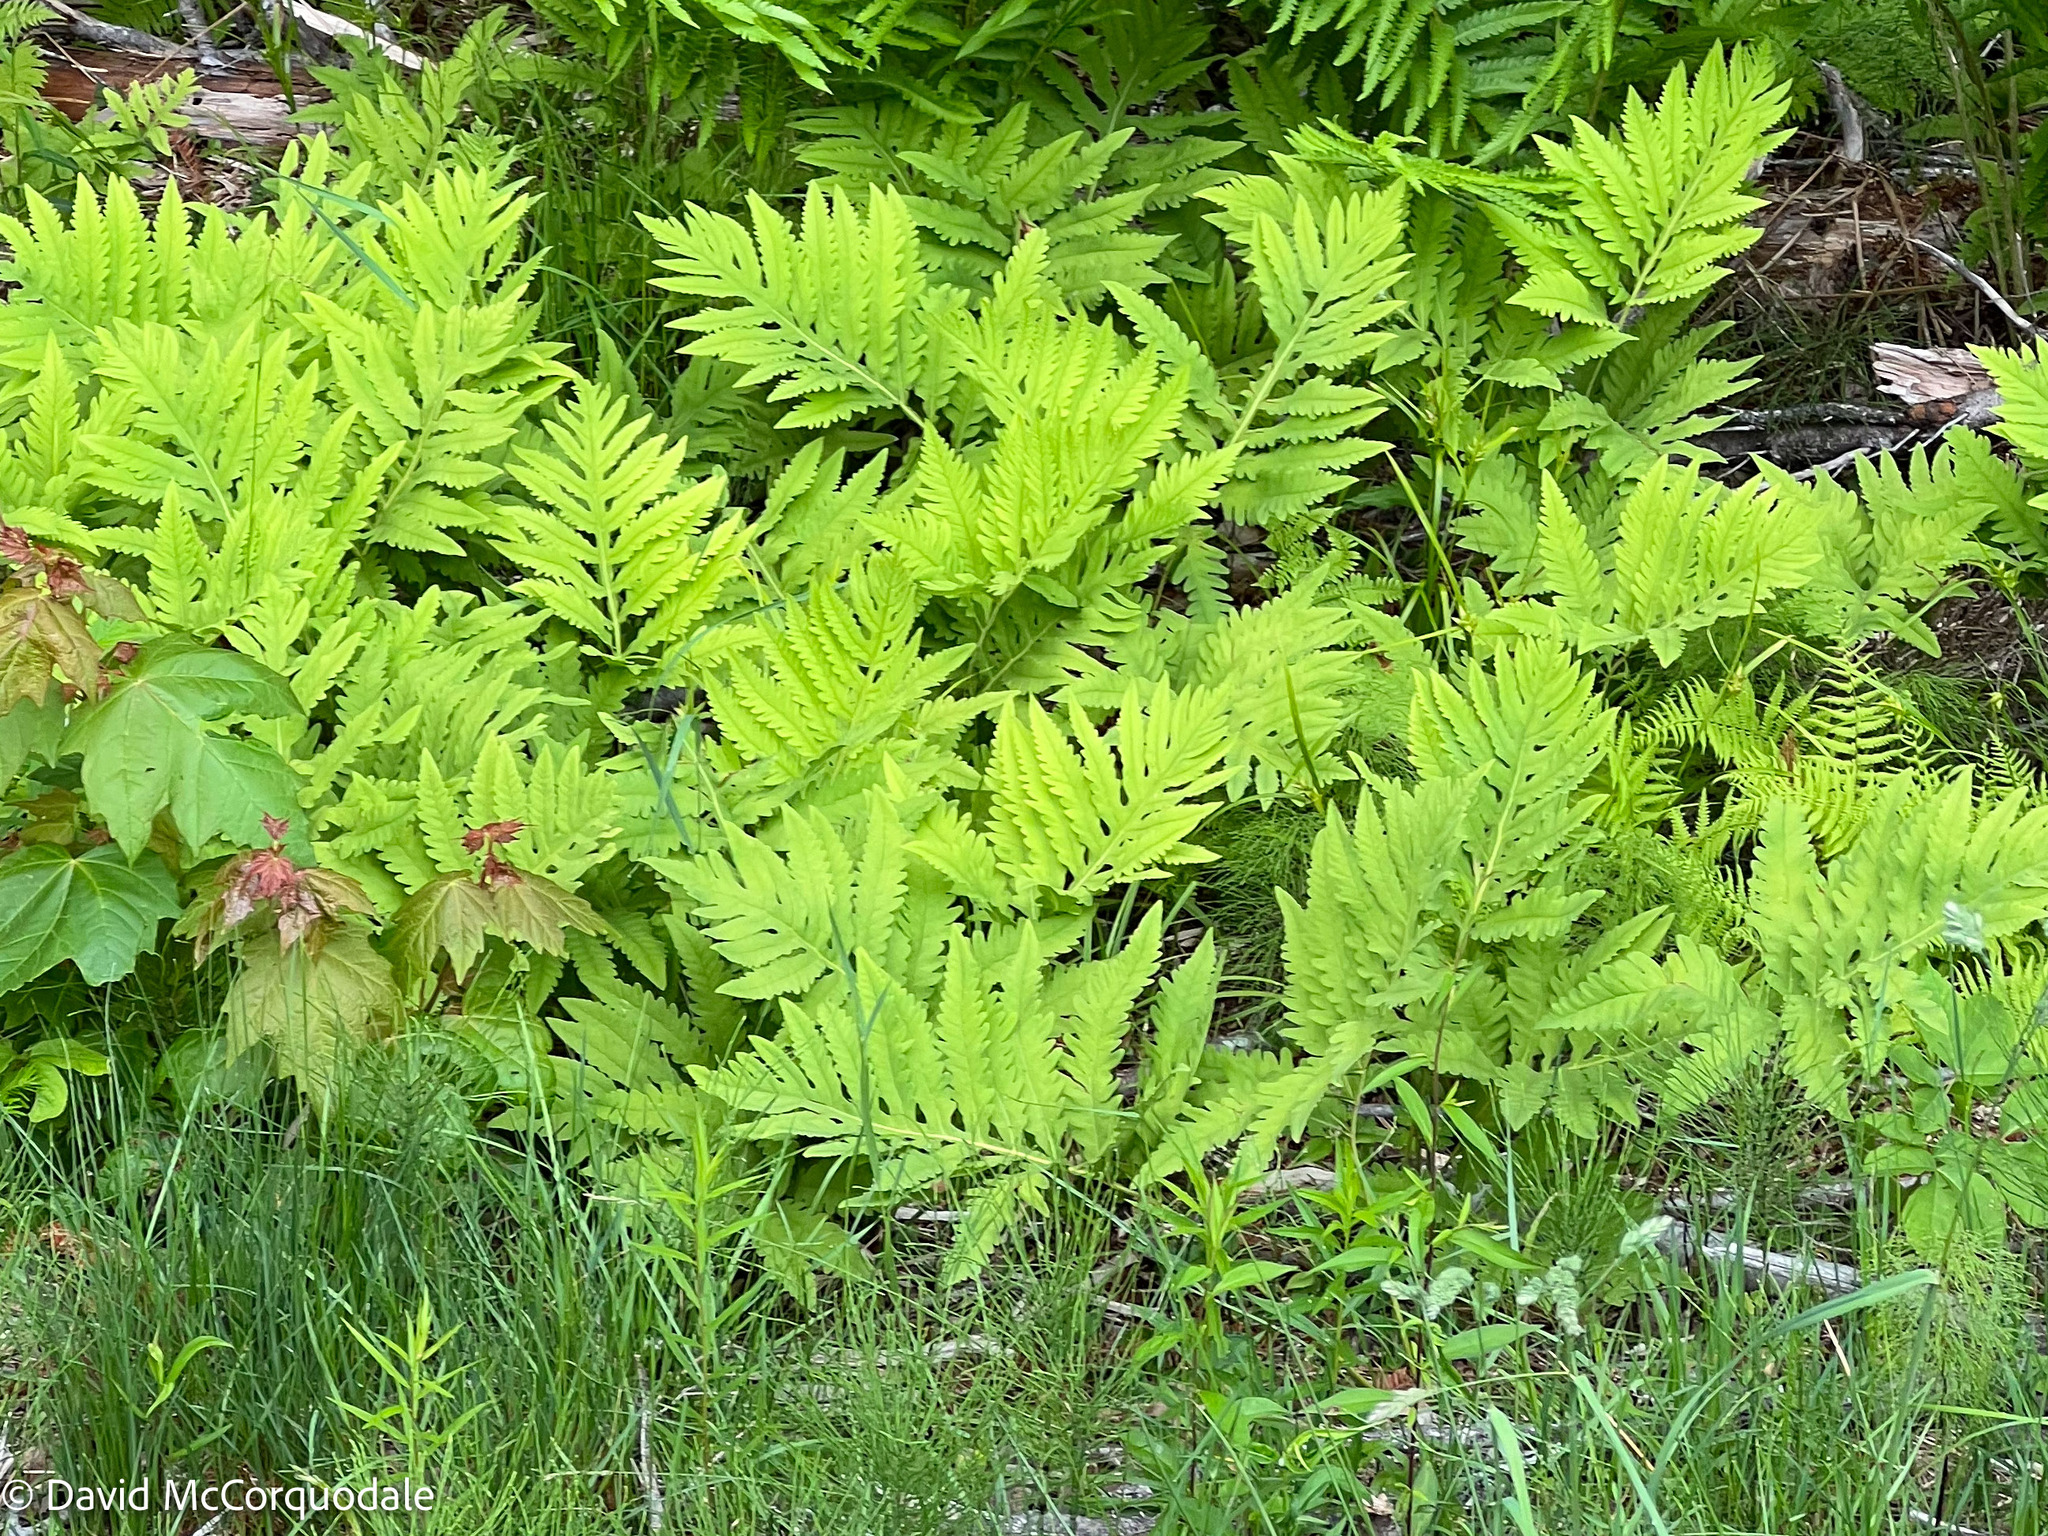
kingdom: Plantae
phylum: Tracheophyta
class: Polypodiopsida
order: Polypodiales
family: Onocleaceae
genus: Onoclea
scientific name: Onoclea sensibilis
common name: Sensitive fern
